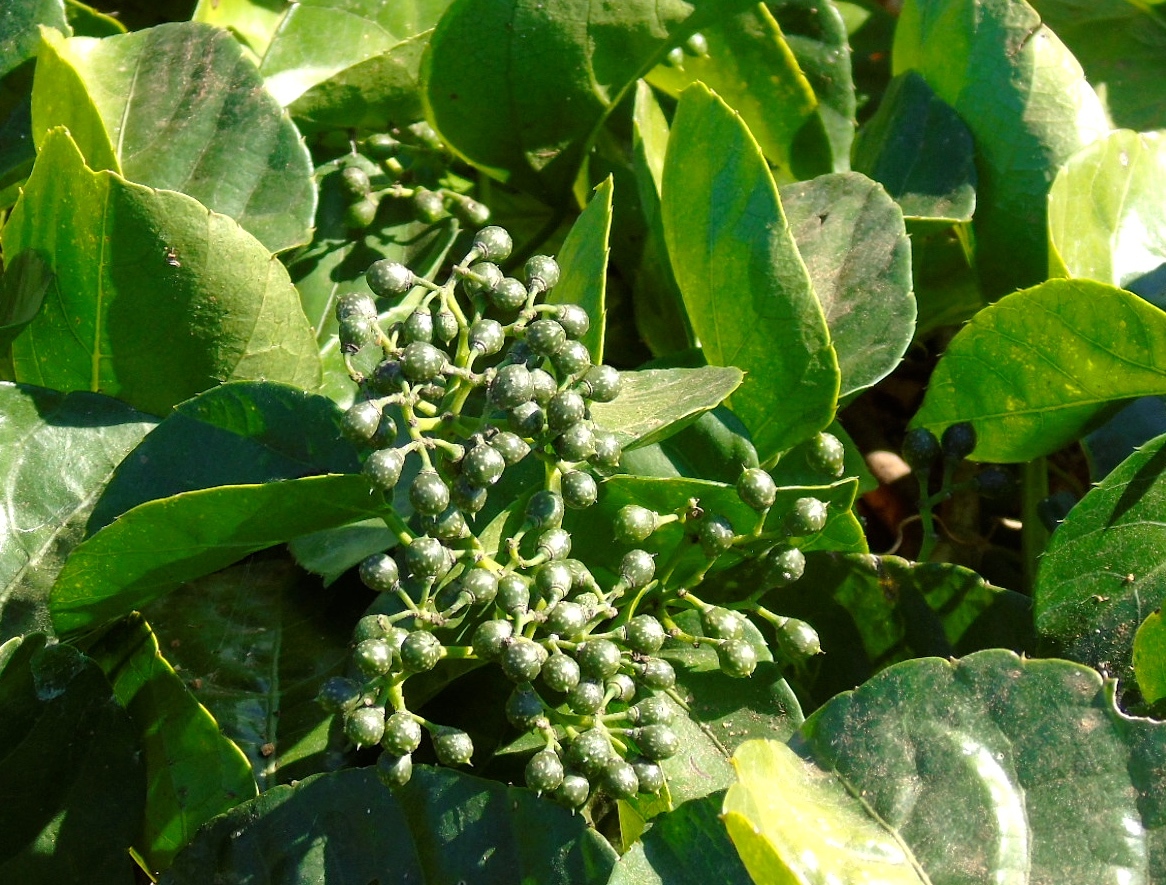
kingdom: Plantae
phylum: Tracheophyta
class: Magnoliopsida
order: Vitales
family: Vitaceae
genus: Cissus
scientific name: Cissus verticillata
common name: Princess vine
